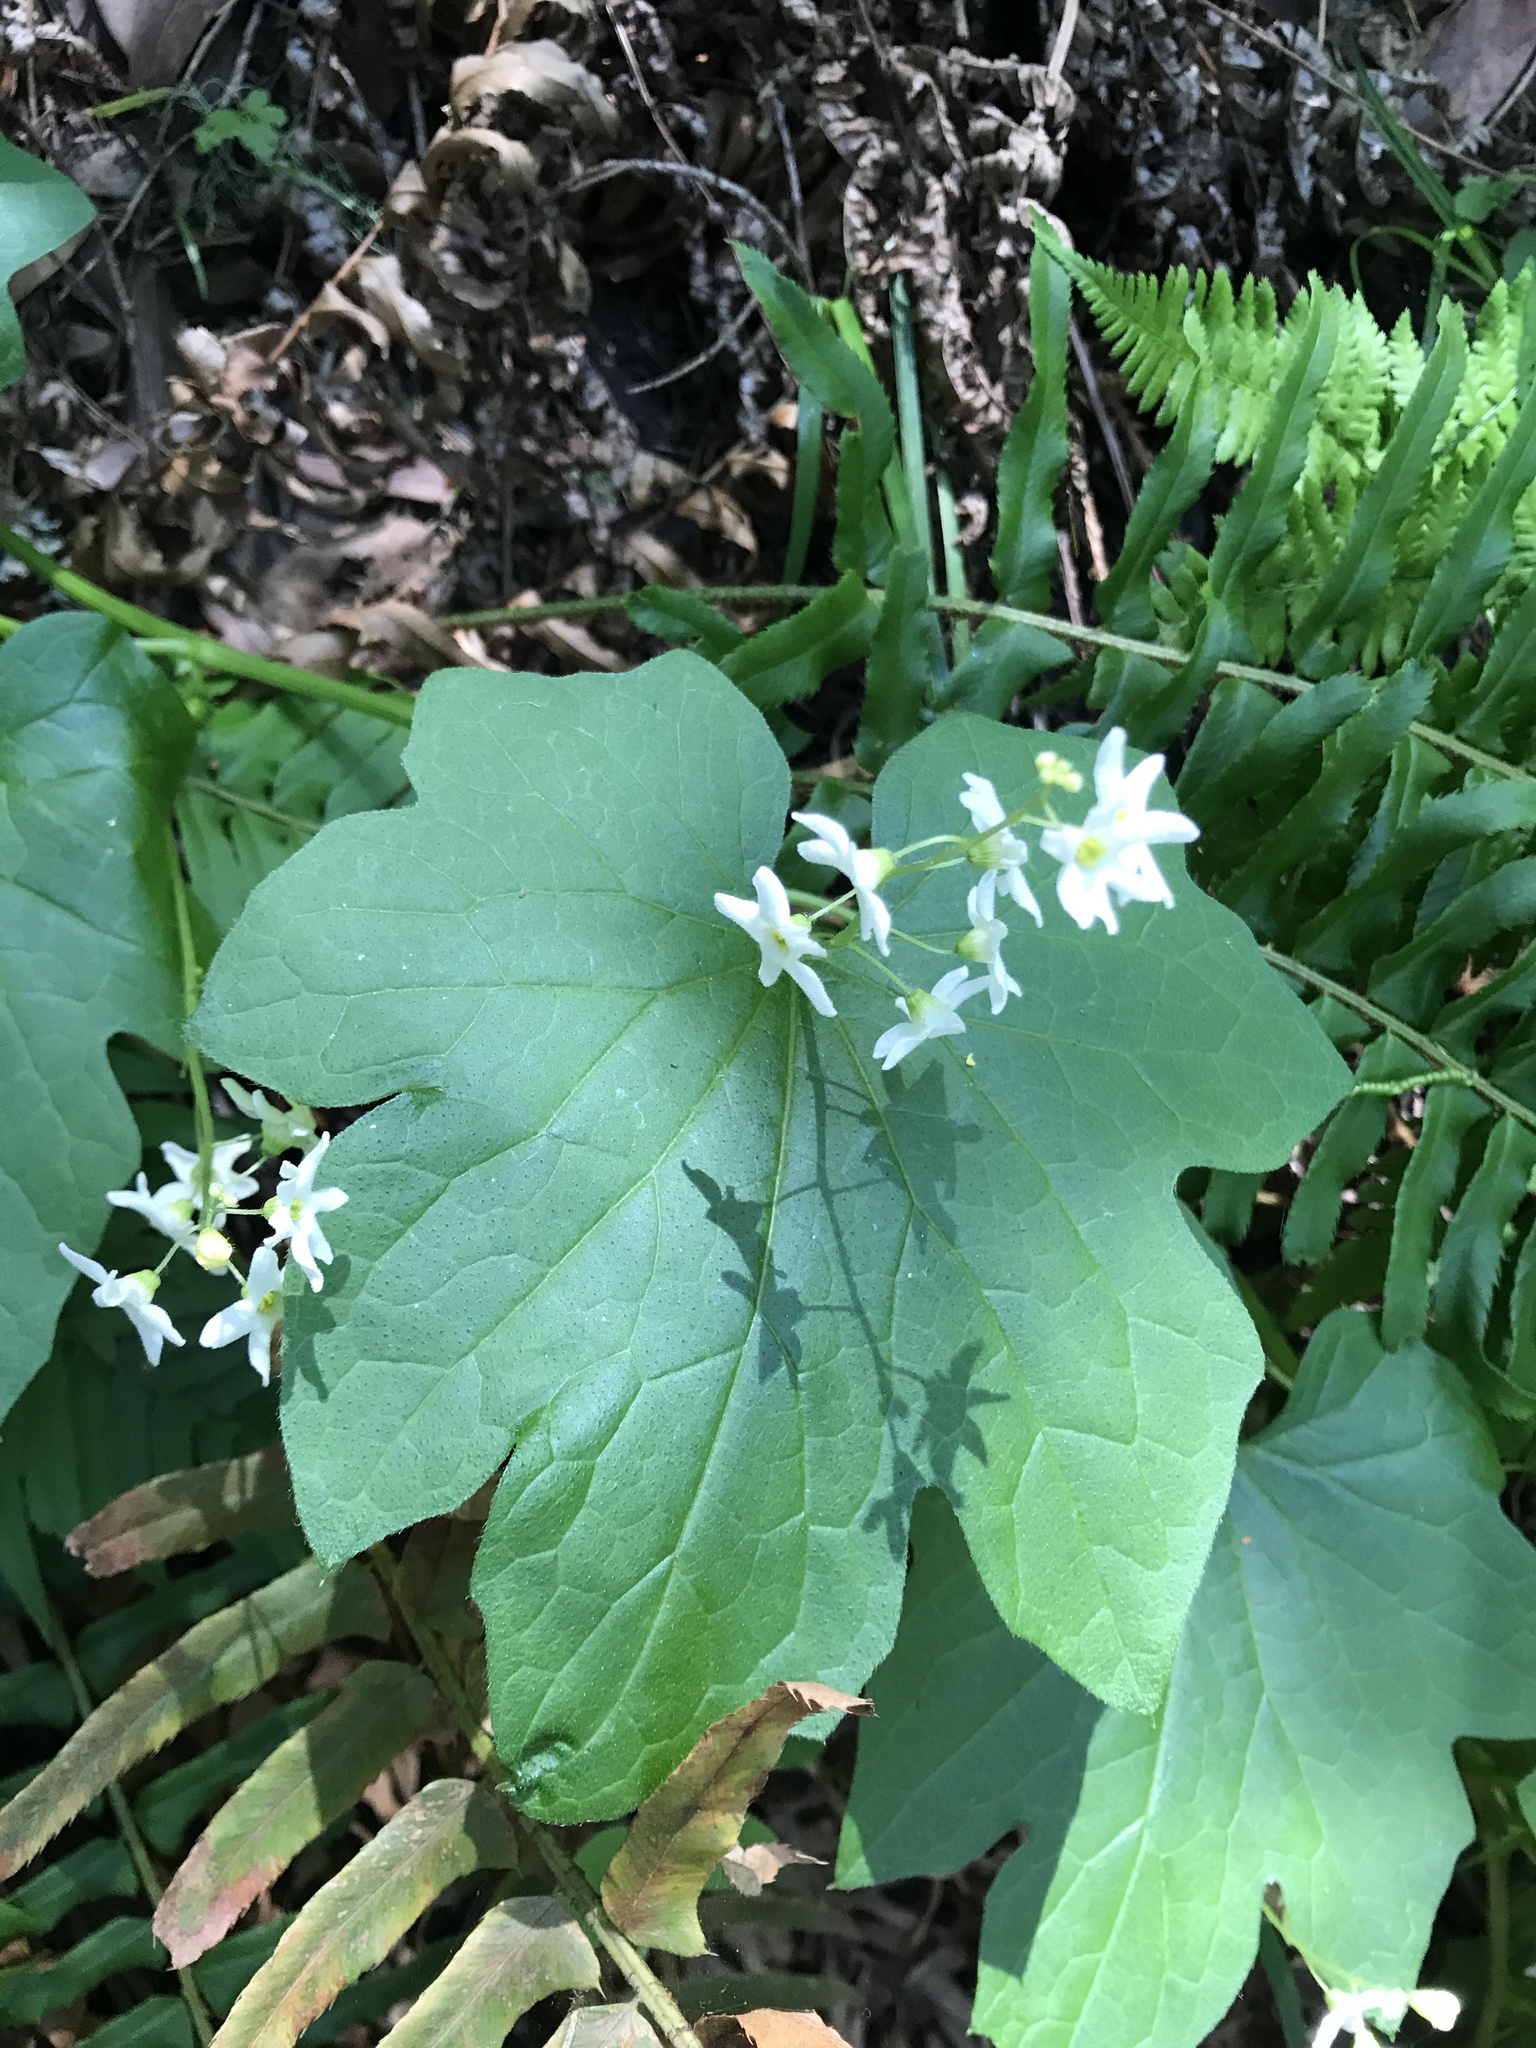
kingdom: Plantae
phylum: Tracheophyta
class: Magnoliopsida
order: Cucurbitales
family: Cucurbitaceae
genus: Marah
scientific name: Marah oregana
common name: Coastal manroot
